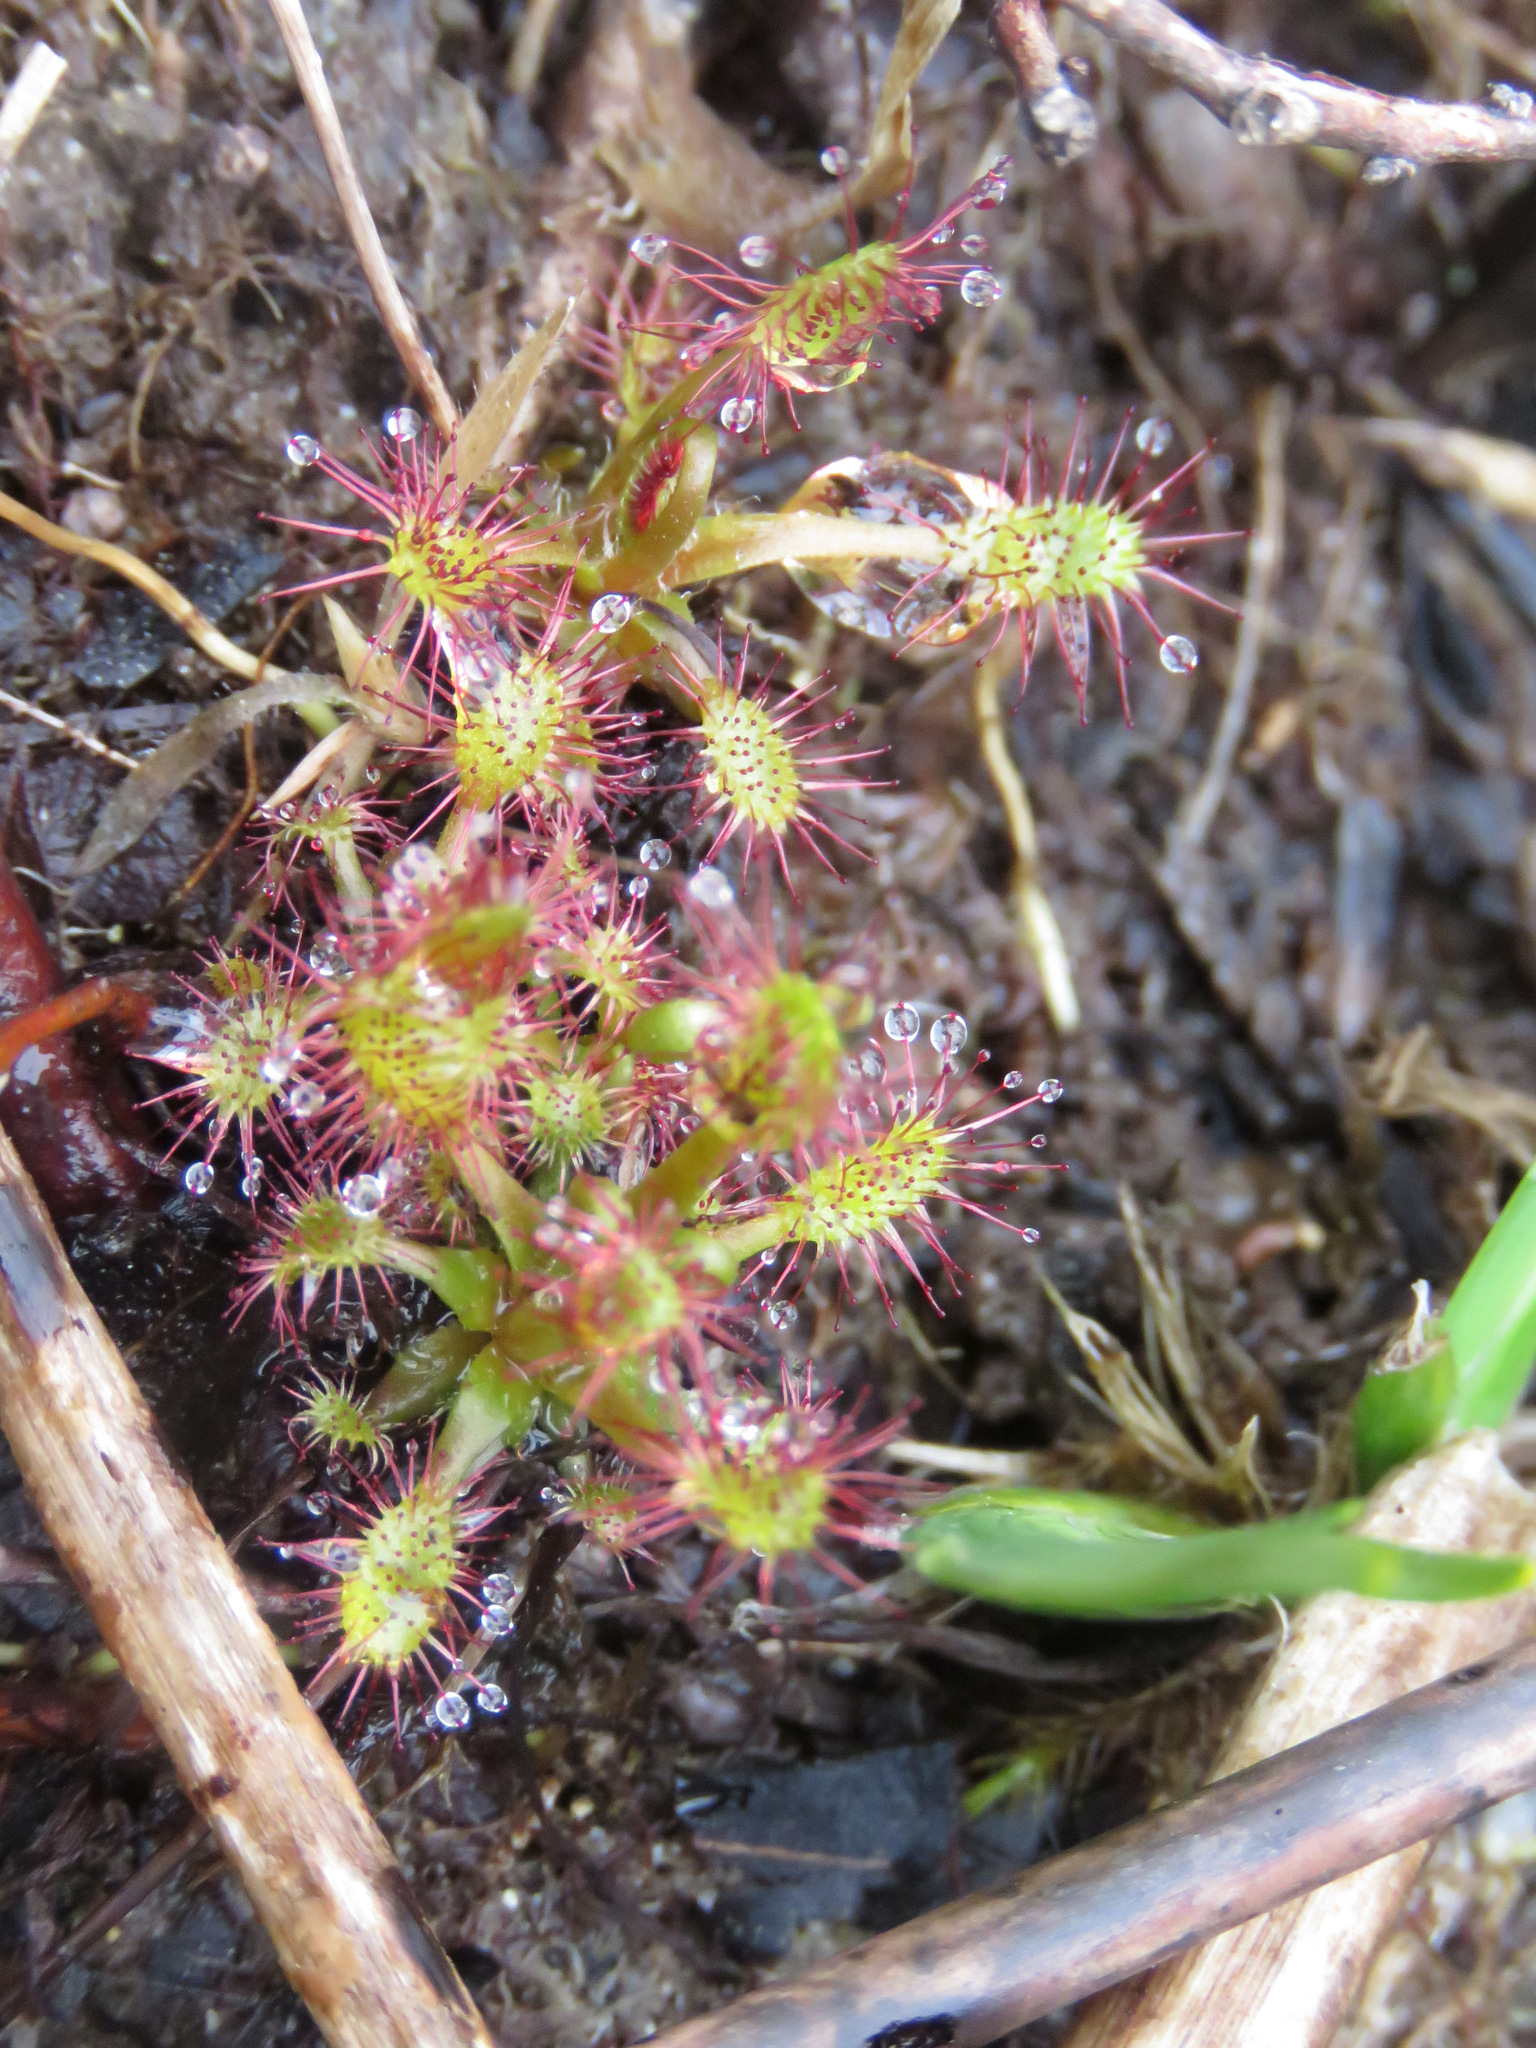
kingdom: Plantae
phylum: Tracheophyta
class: Magnoliopsida
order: Caryophyllales
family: Droseraceae
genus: Drosera
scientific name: Drosera anglica
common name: Great sundew
